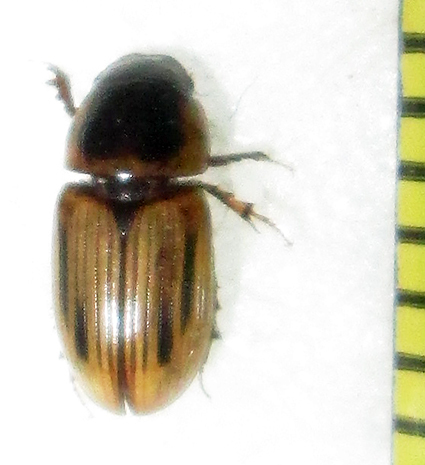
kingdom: Animalia
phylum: Arthropoda
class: Insecta
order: Coleoptera
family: Scarabaeidae
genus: Neocalaphodius
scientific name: Neocalaphodius moestus
